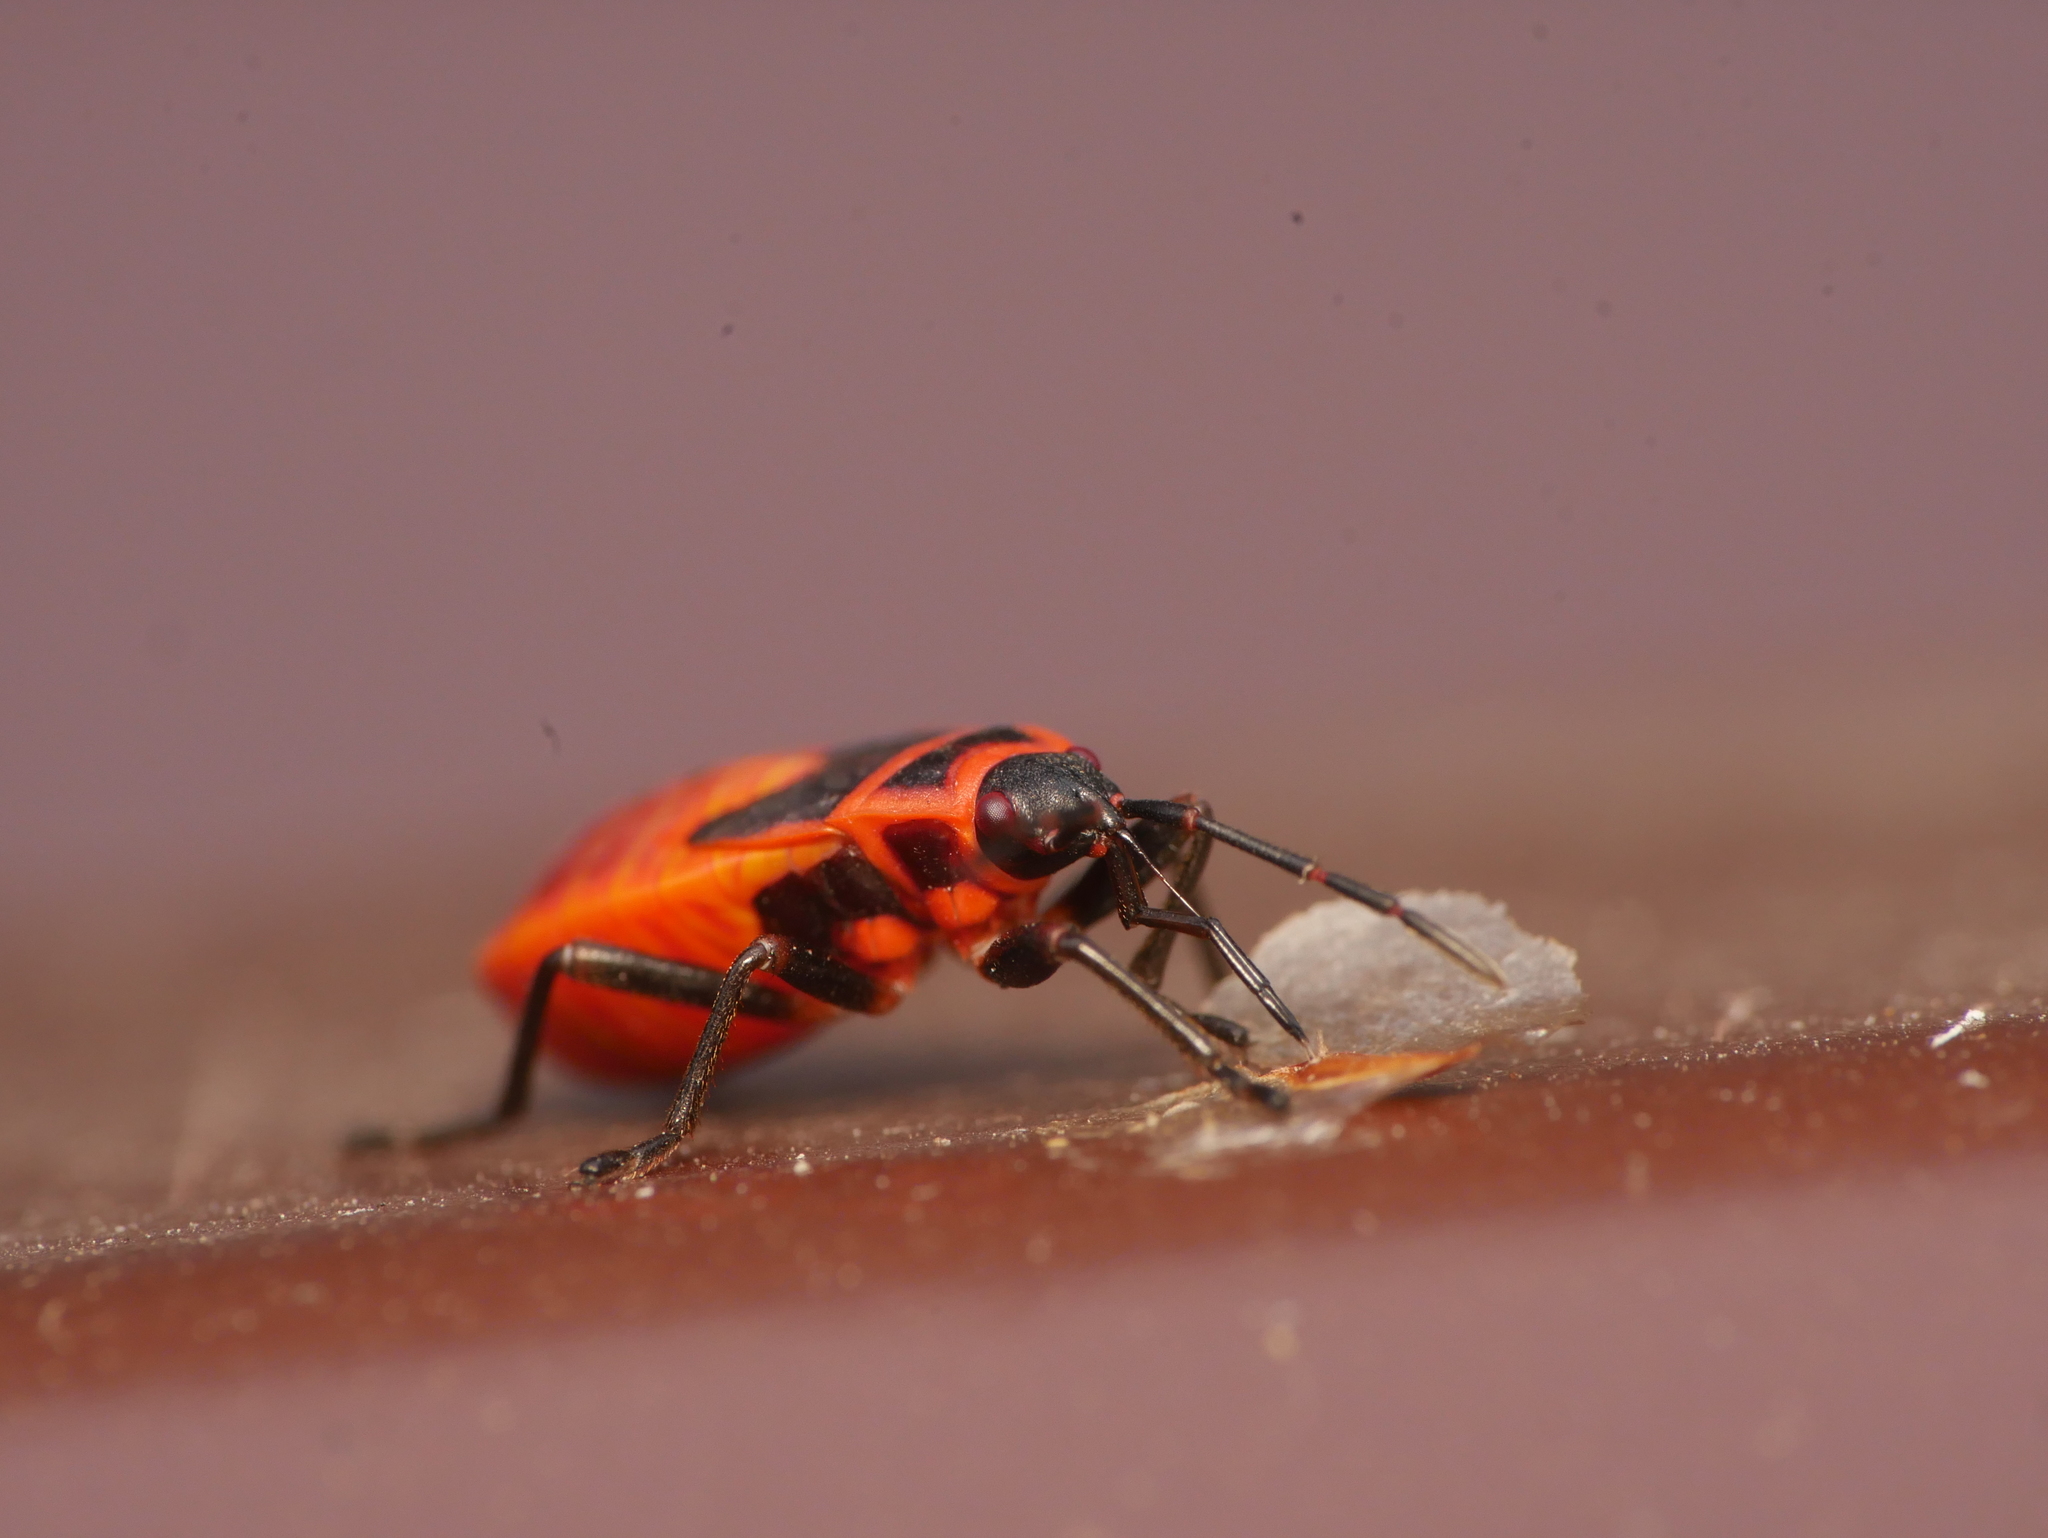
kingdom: Animalia
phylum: Arthropoda
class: Insecta
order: Hemiptera
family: Pyrrhocoridae
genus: Pyrrhocoris
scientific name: Pyrrhocoris apterus
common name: Firebug
